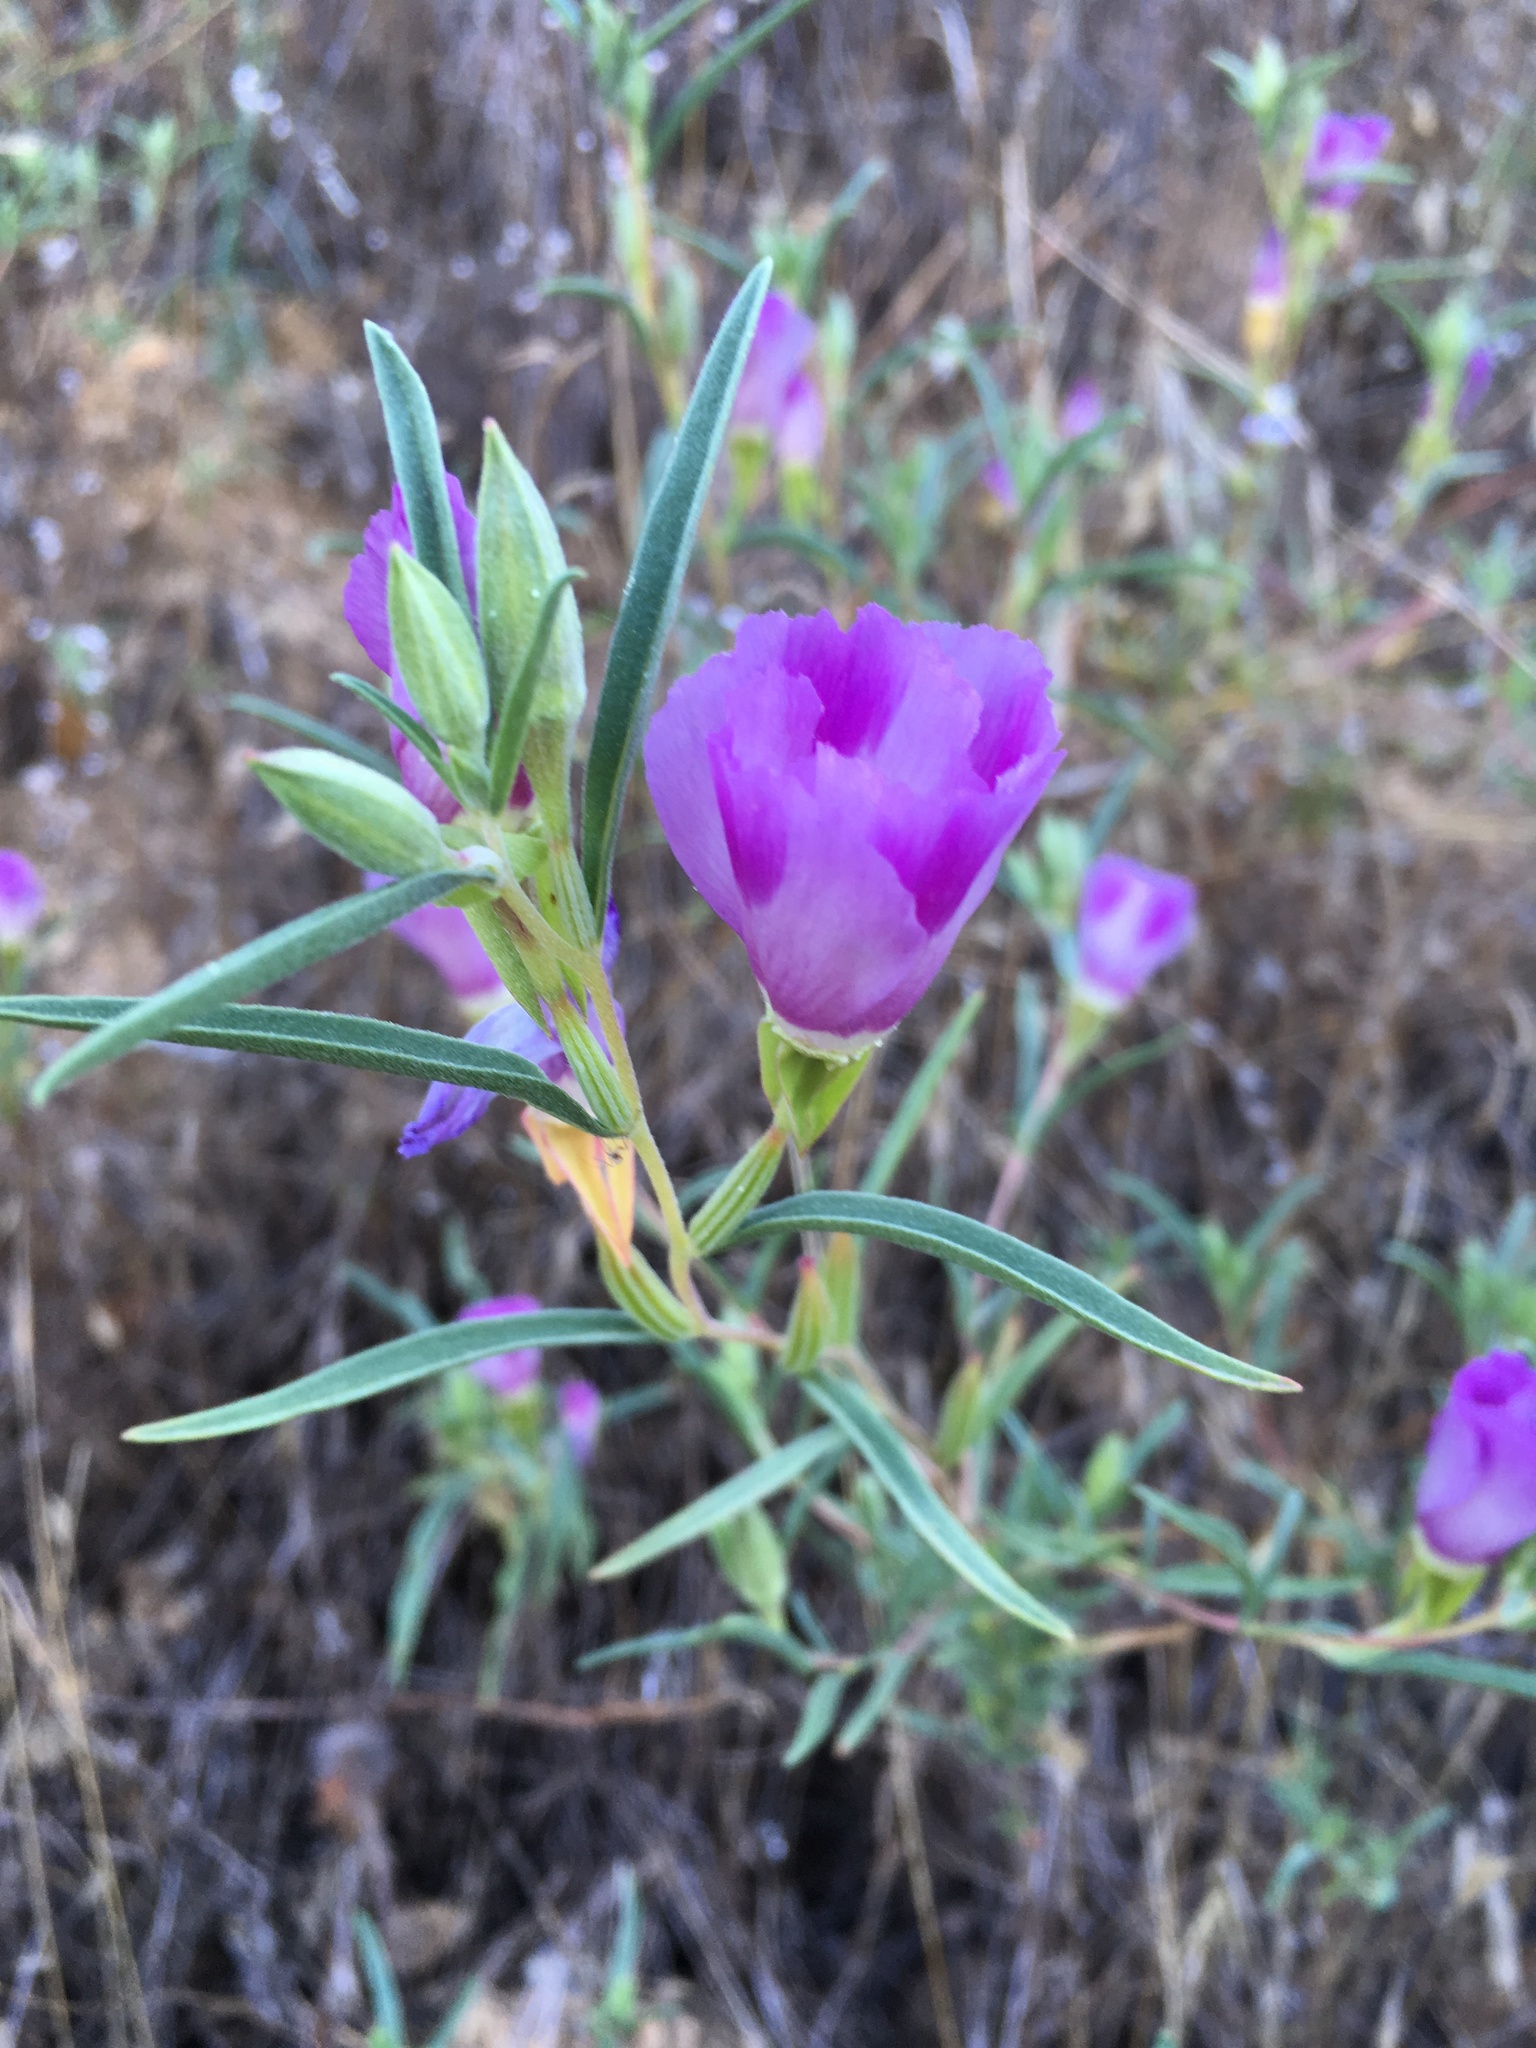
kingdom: Plantae
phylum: Tracheophyta
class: Magnoliopsida
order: Myrtales
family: Onagraceae
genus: Clarkia
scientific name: Clarkia purpurea
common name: Purple clarkia
